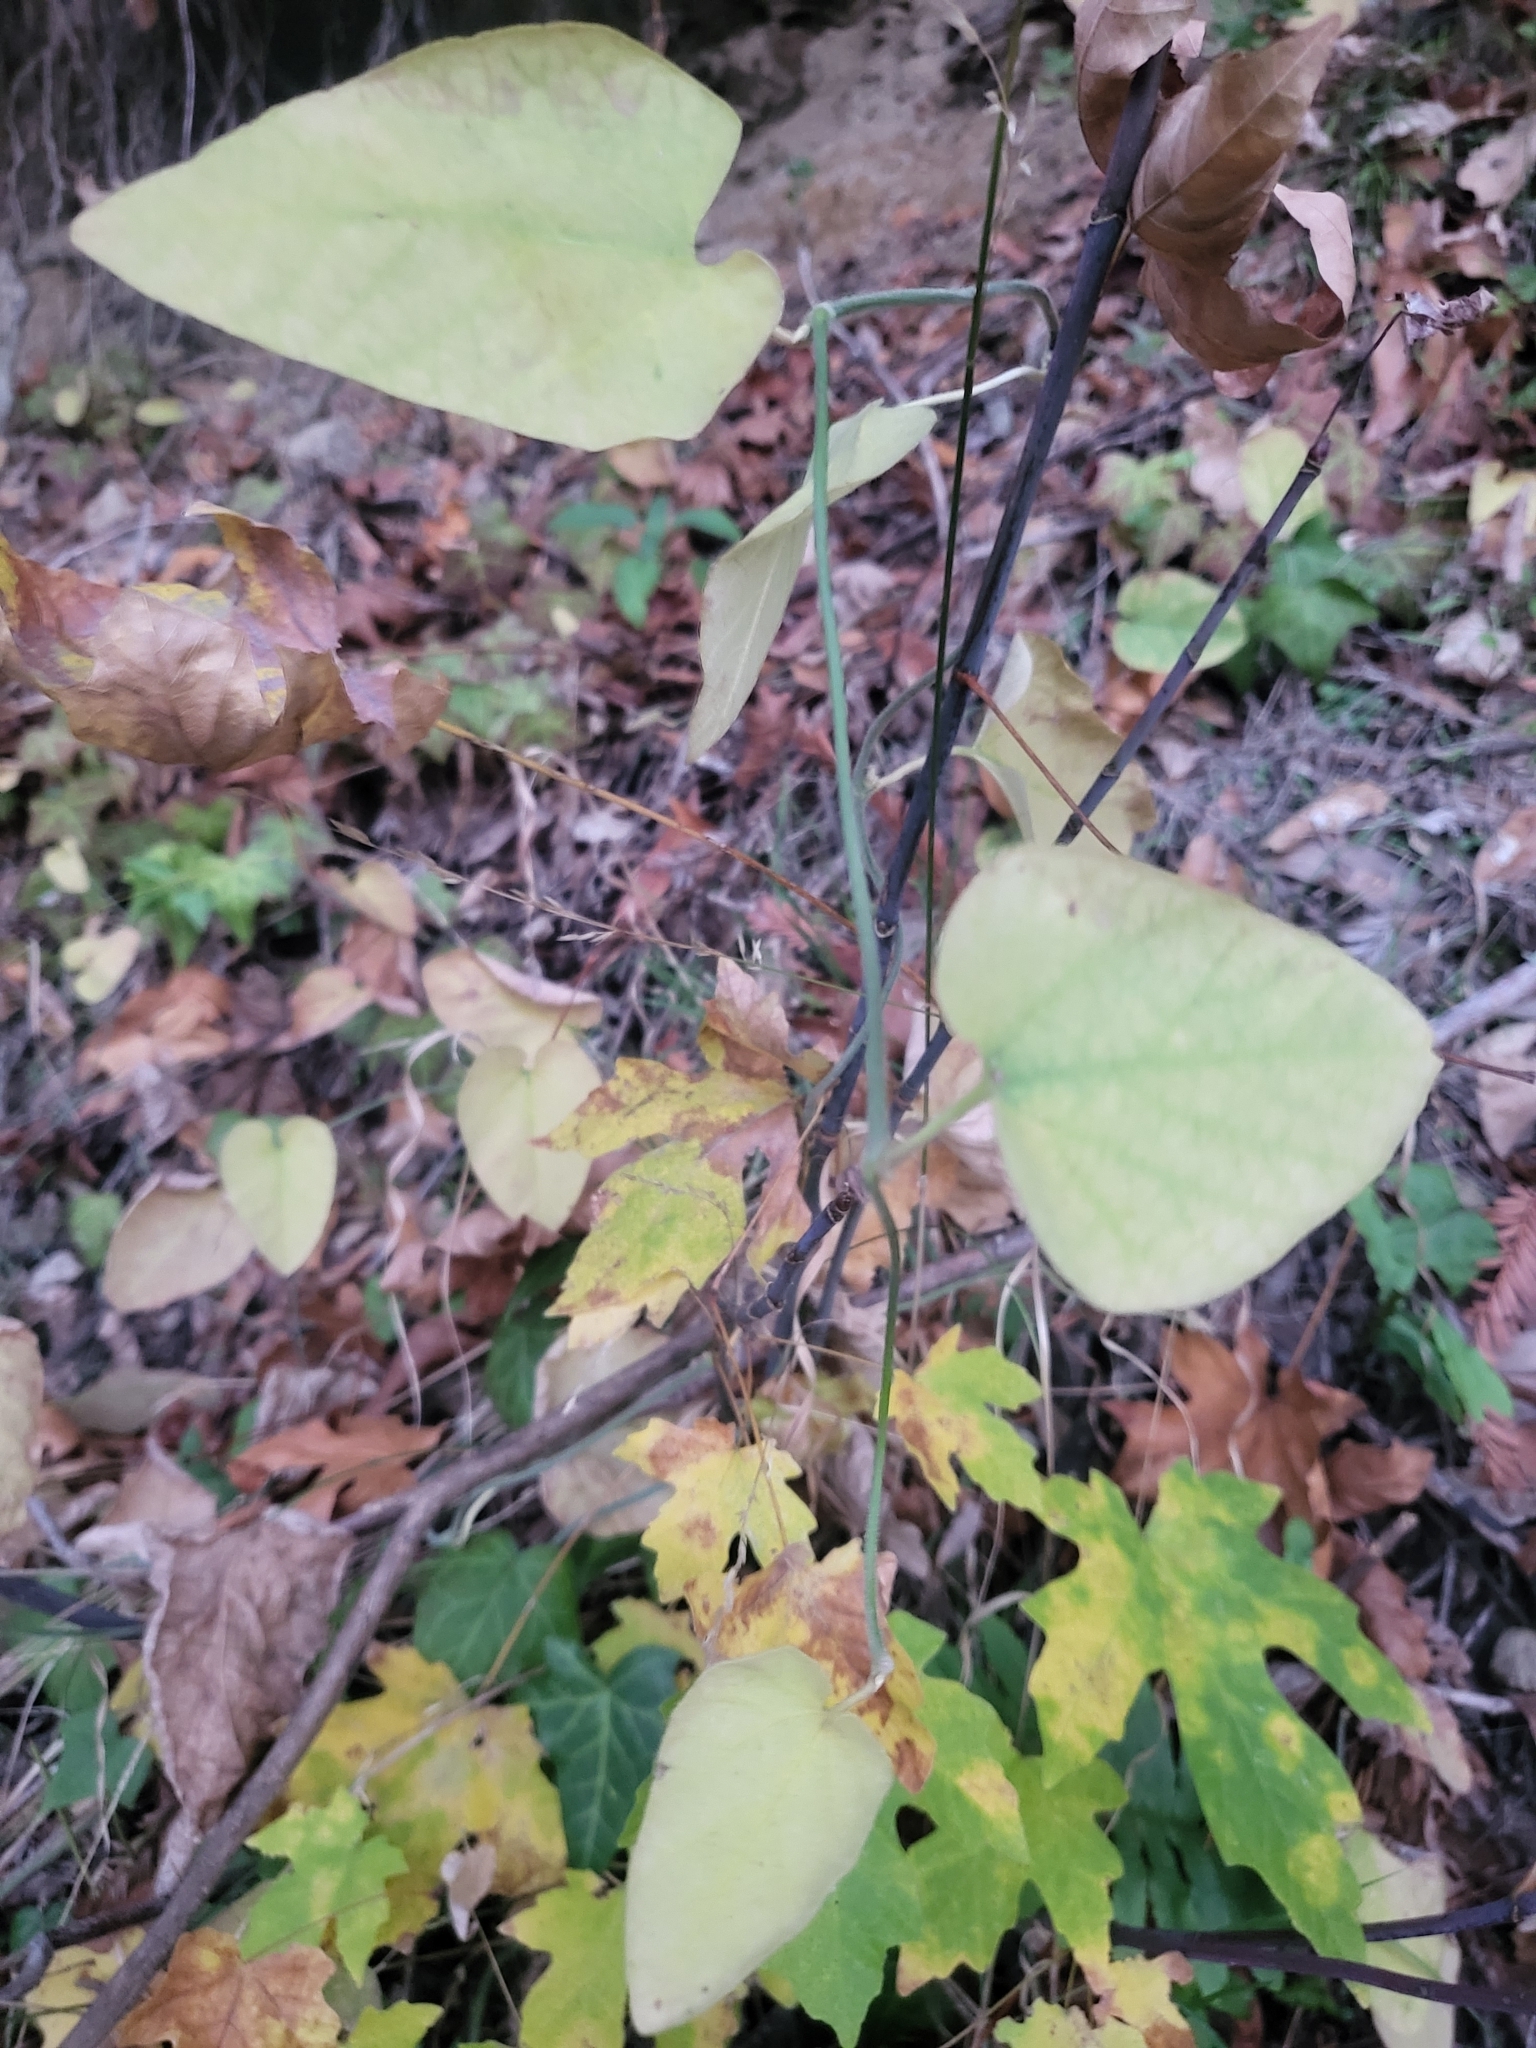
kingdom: Plantae
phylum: Tracheophyta
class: Magnoliopsida
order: Piperales
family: Aristolochiaceae
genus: Isotrema
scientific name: Isotrema californicum
